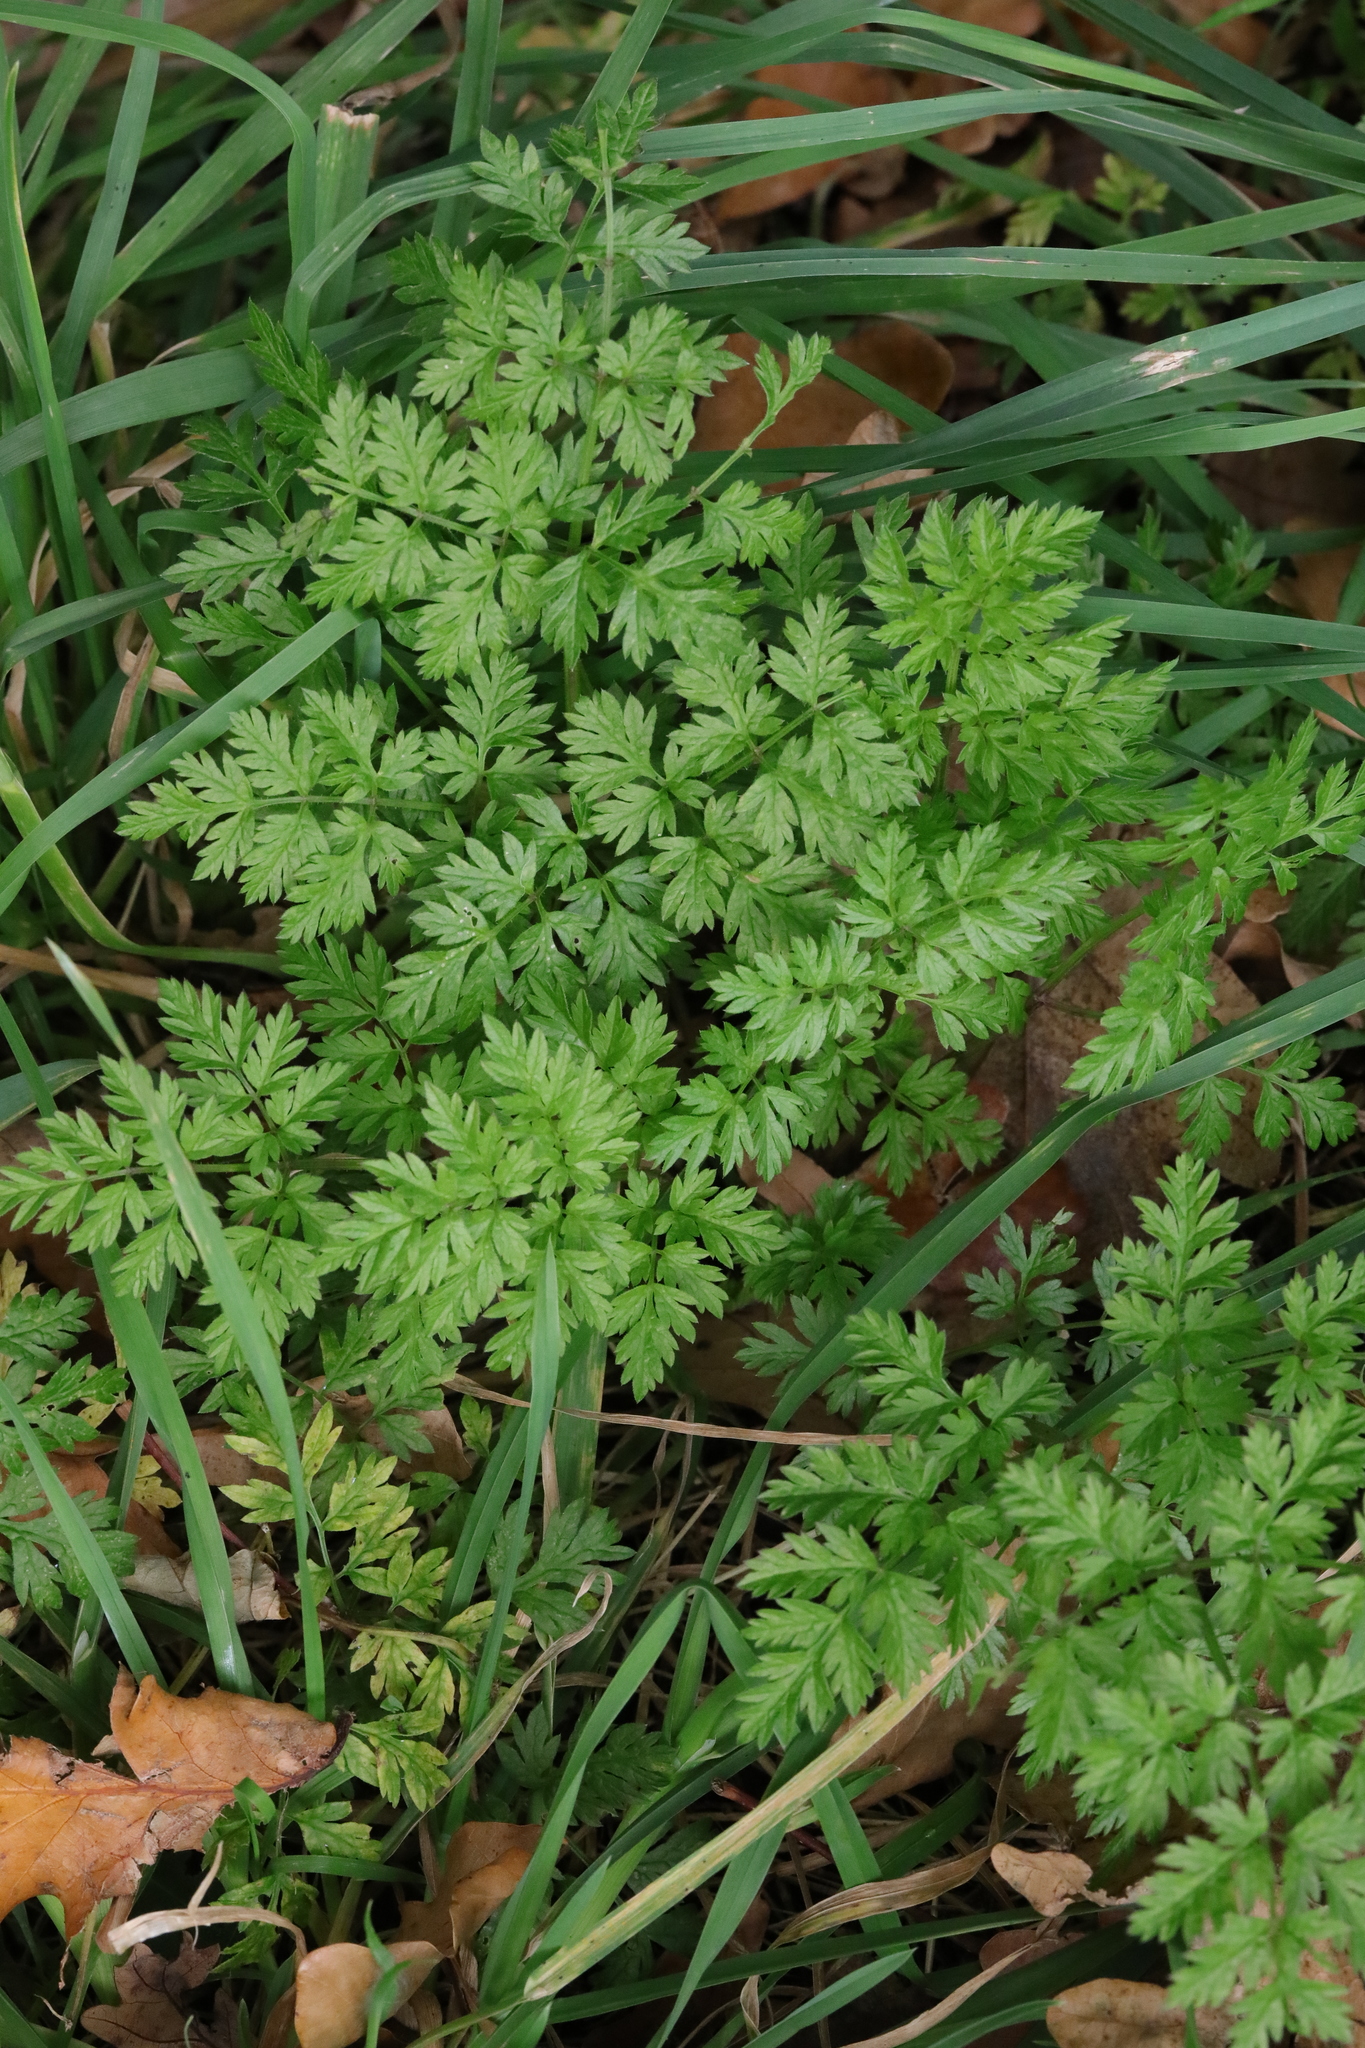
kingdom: Plantae
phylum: Tracheophyta
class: Magnoliopsida
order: Apiales
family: Apiaceae
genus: Anthriscus
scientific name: Anthriscus sylvestris
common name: Cow parsley
